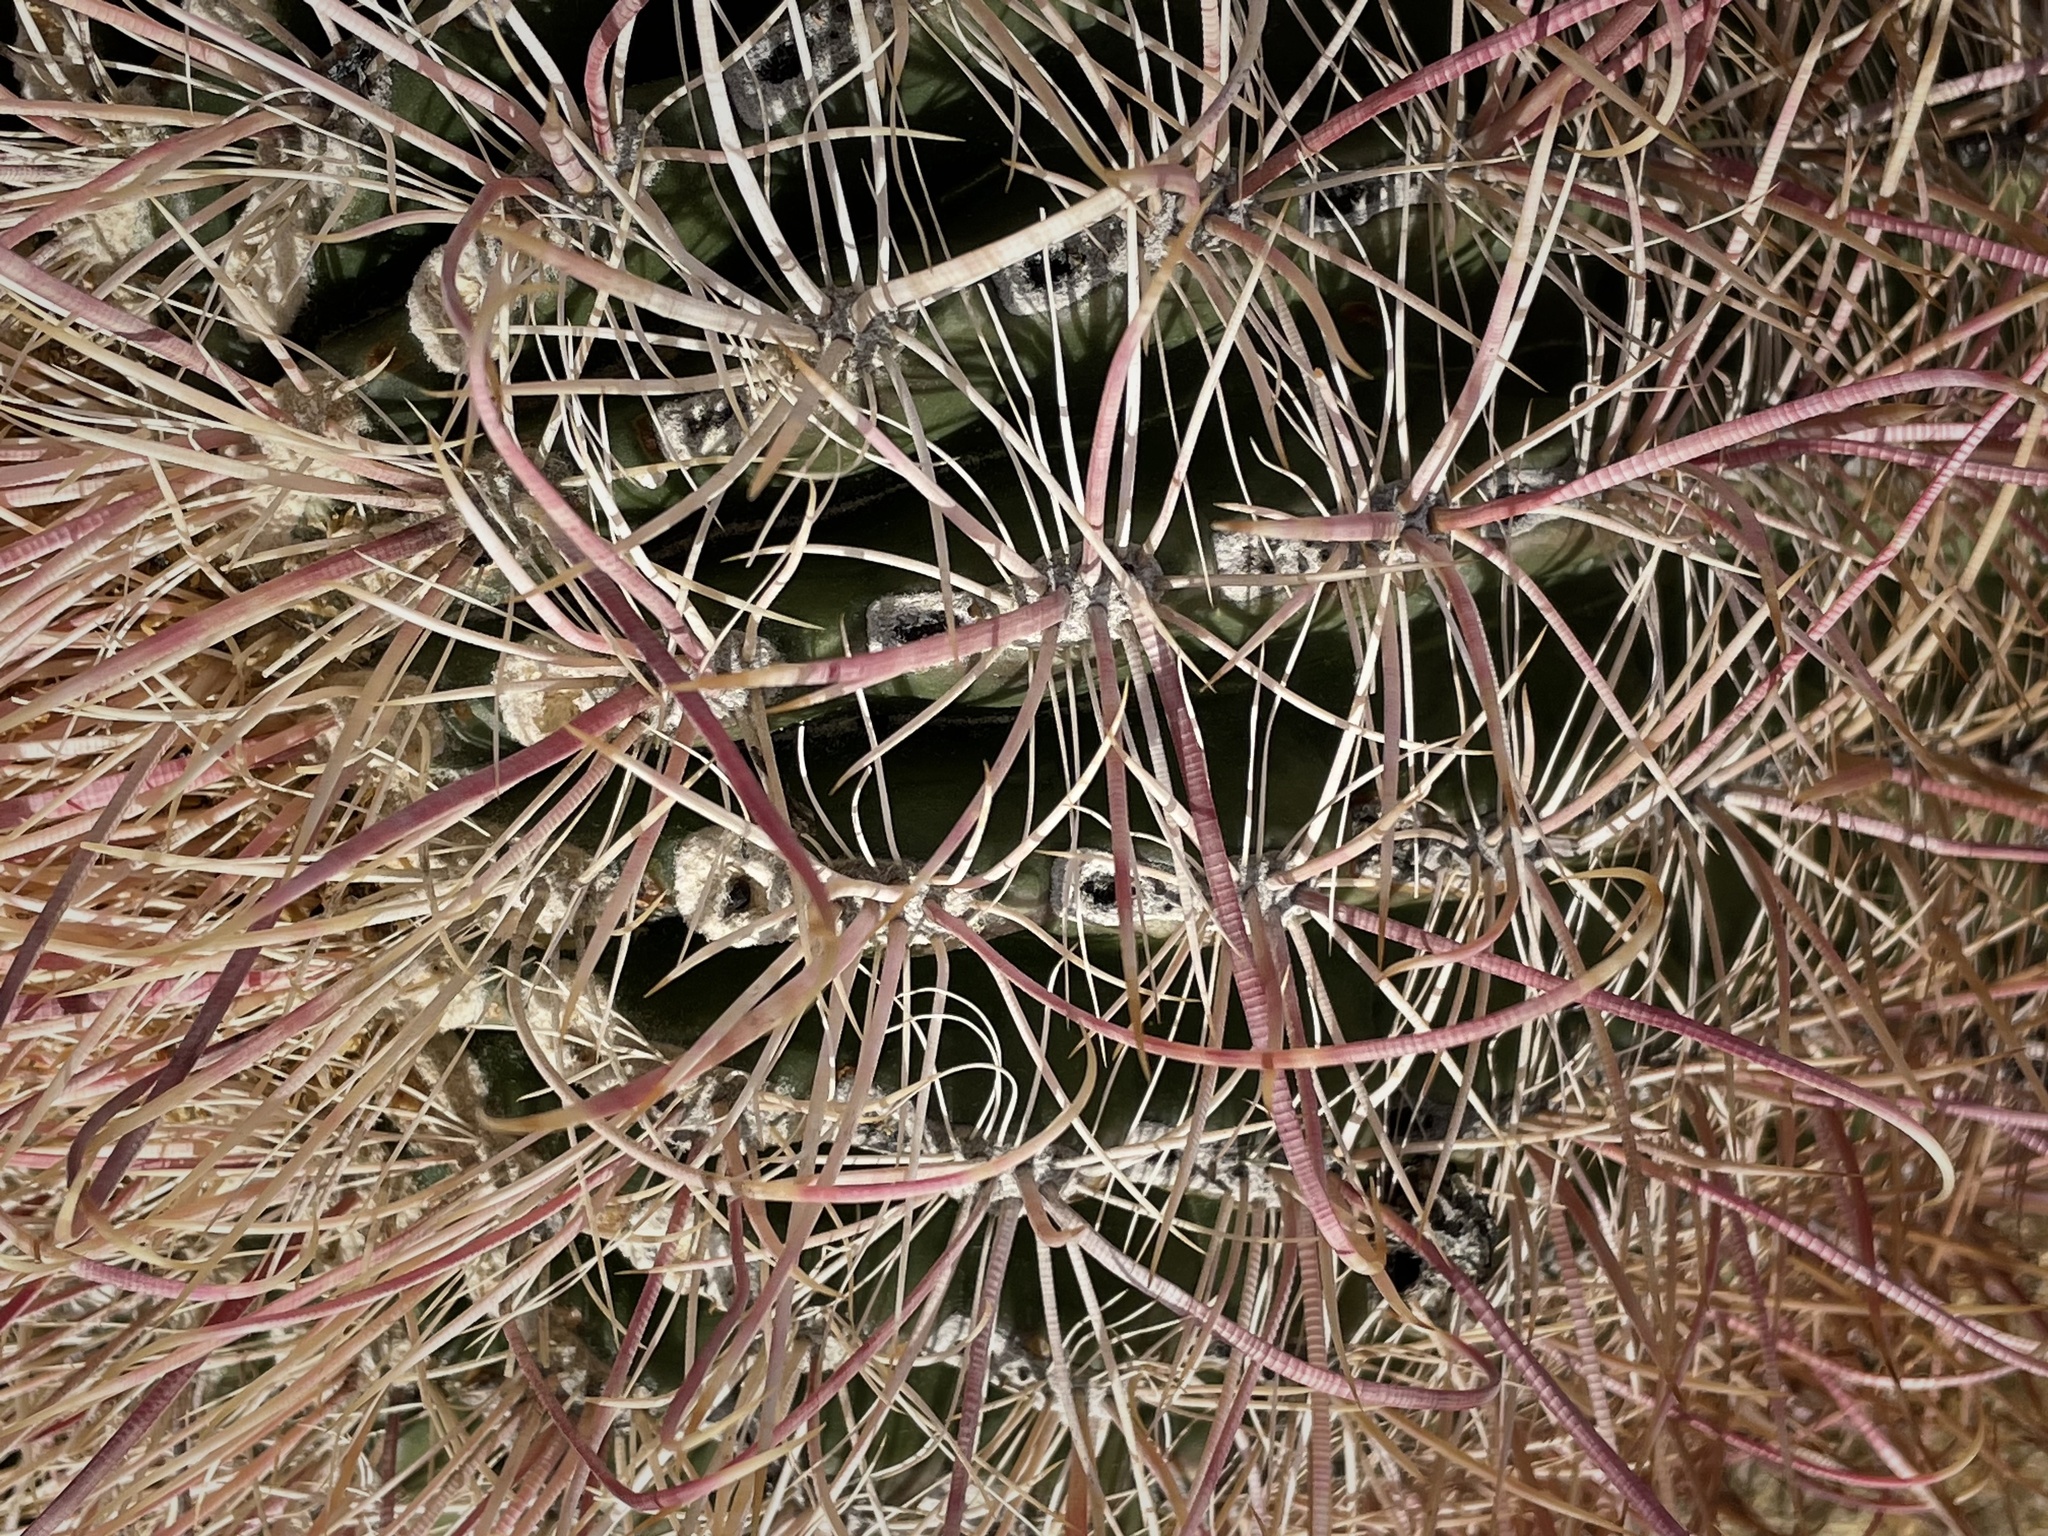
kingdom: Plantae
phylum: Tracheophyta
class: Magnoliopsida
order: Caryophyllales
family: Cactaceae
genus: Ferocactus
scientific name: Ferocactus cylindraceus
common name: California barrel cactus
